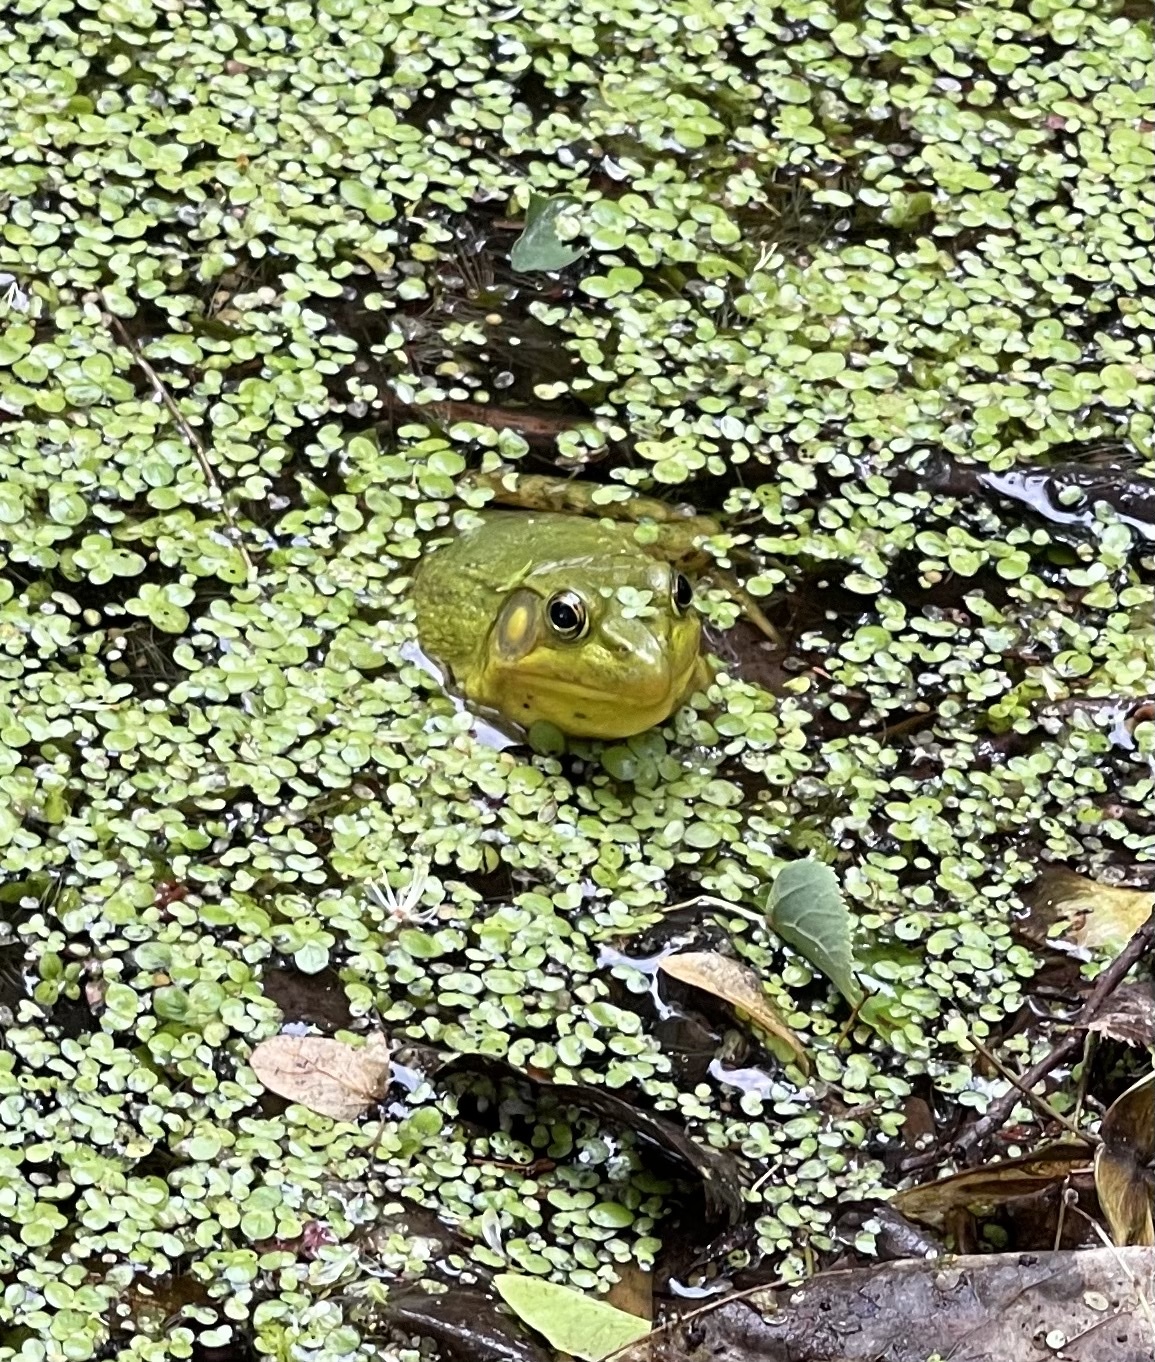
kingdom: Animalia
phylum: Chordata
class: Amphibia
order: Anura
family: Ranidae
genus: Lithobates
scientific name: Lithobates clamitans
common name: Green frog
